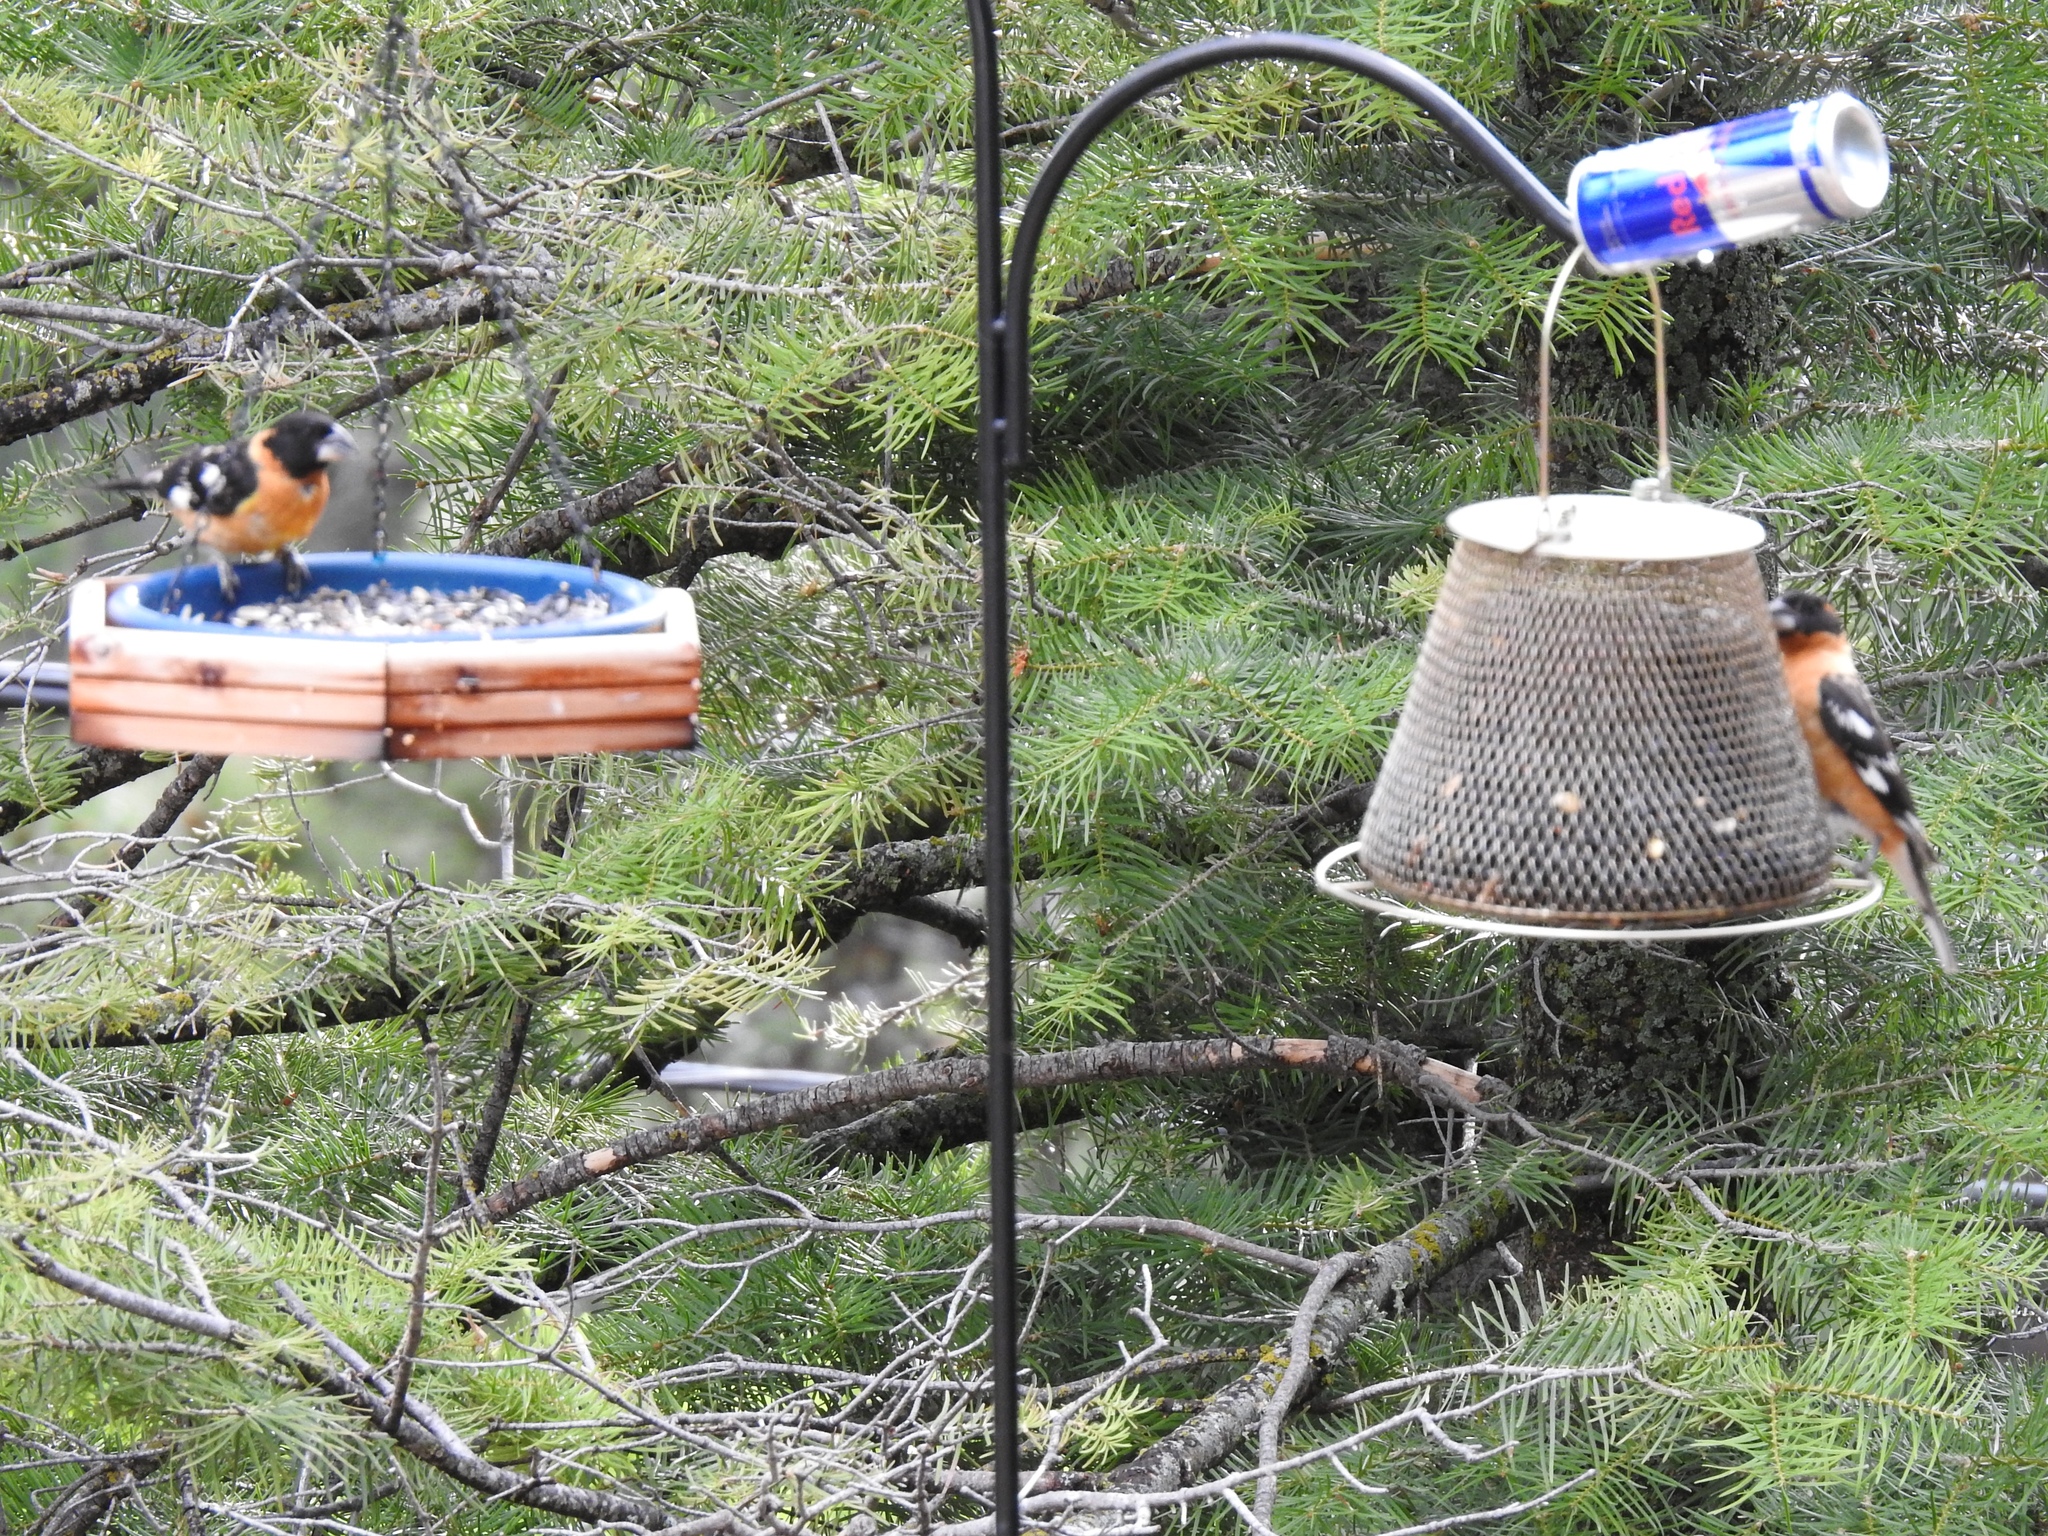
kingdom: Animalia
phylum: Chordata
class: Aves
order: Passeriformes
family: Cardinalidae
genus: Pheucticus
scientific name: Pheucticus melanocephalus
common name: Black-headed grosbeak
